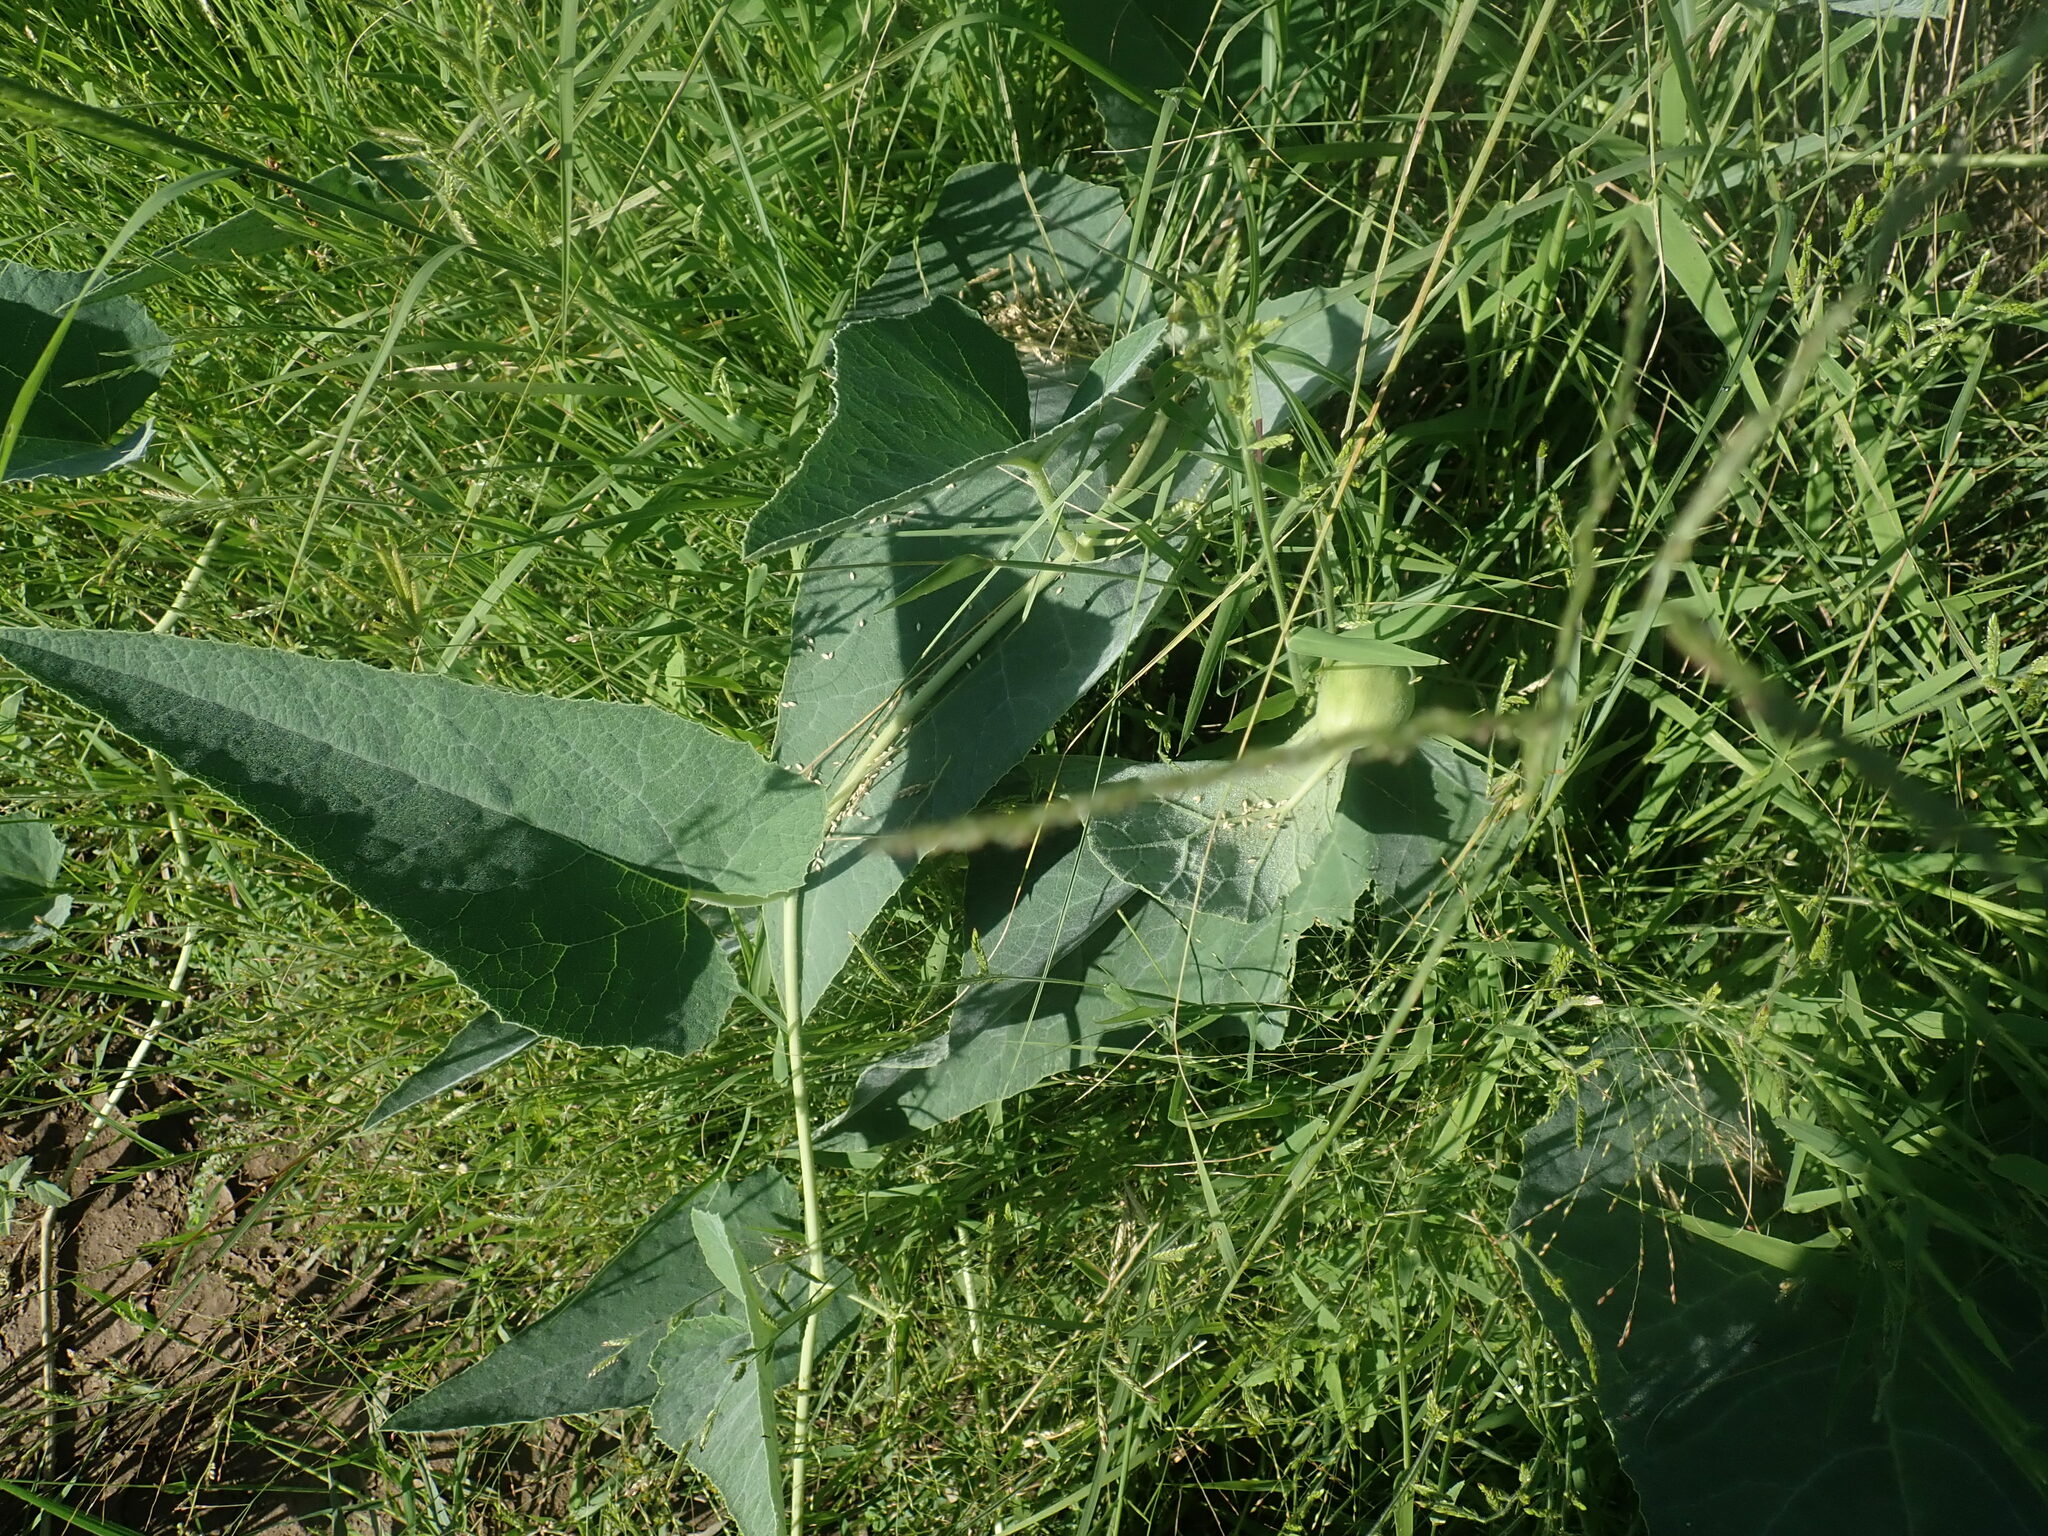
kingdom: Plantae
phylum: Tracheophyta
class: Magnoliopsida
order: Cucurbitales
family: Cucurbitaceae
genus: Cucurbita
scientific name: Cucurbita foetidissima
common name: Buffalo gourd
